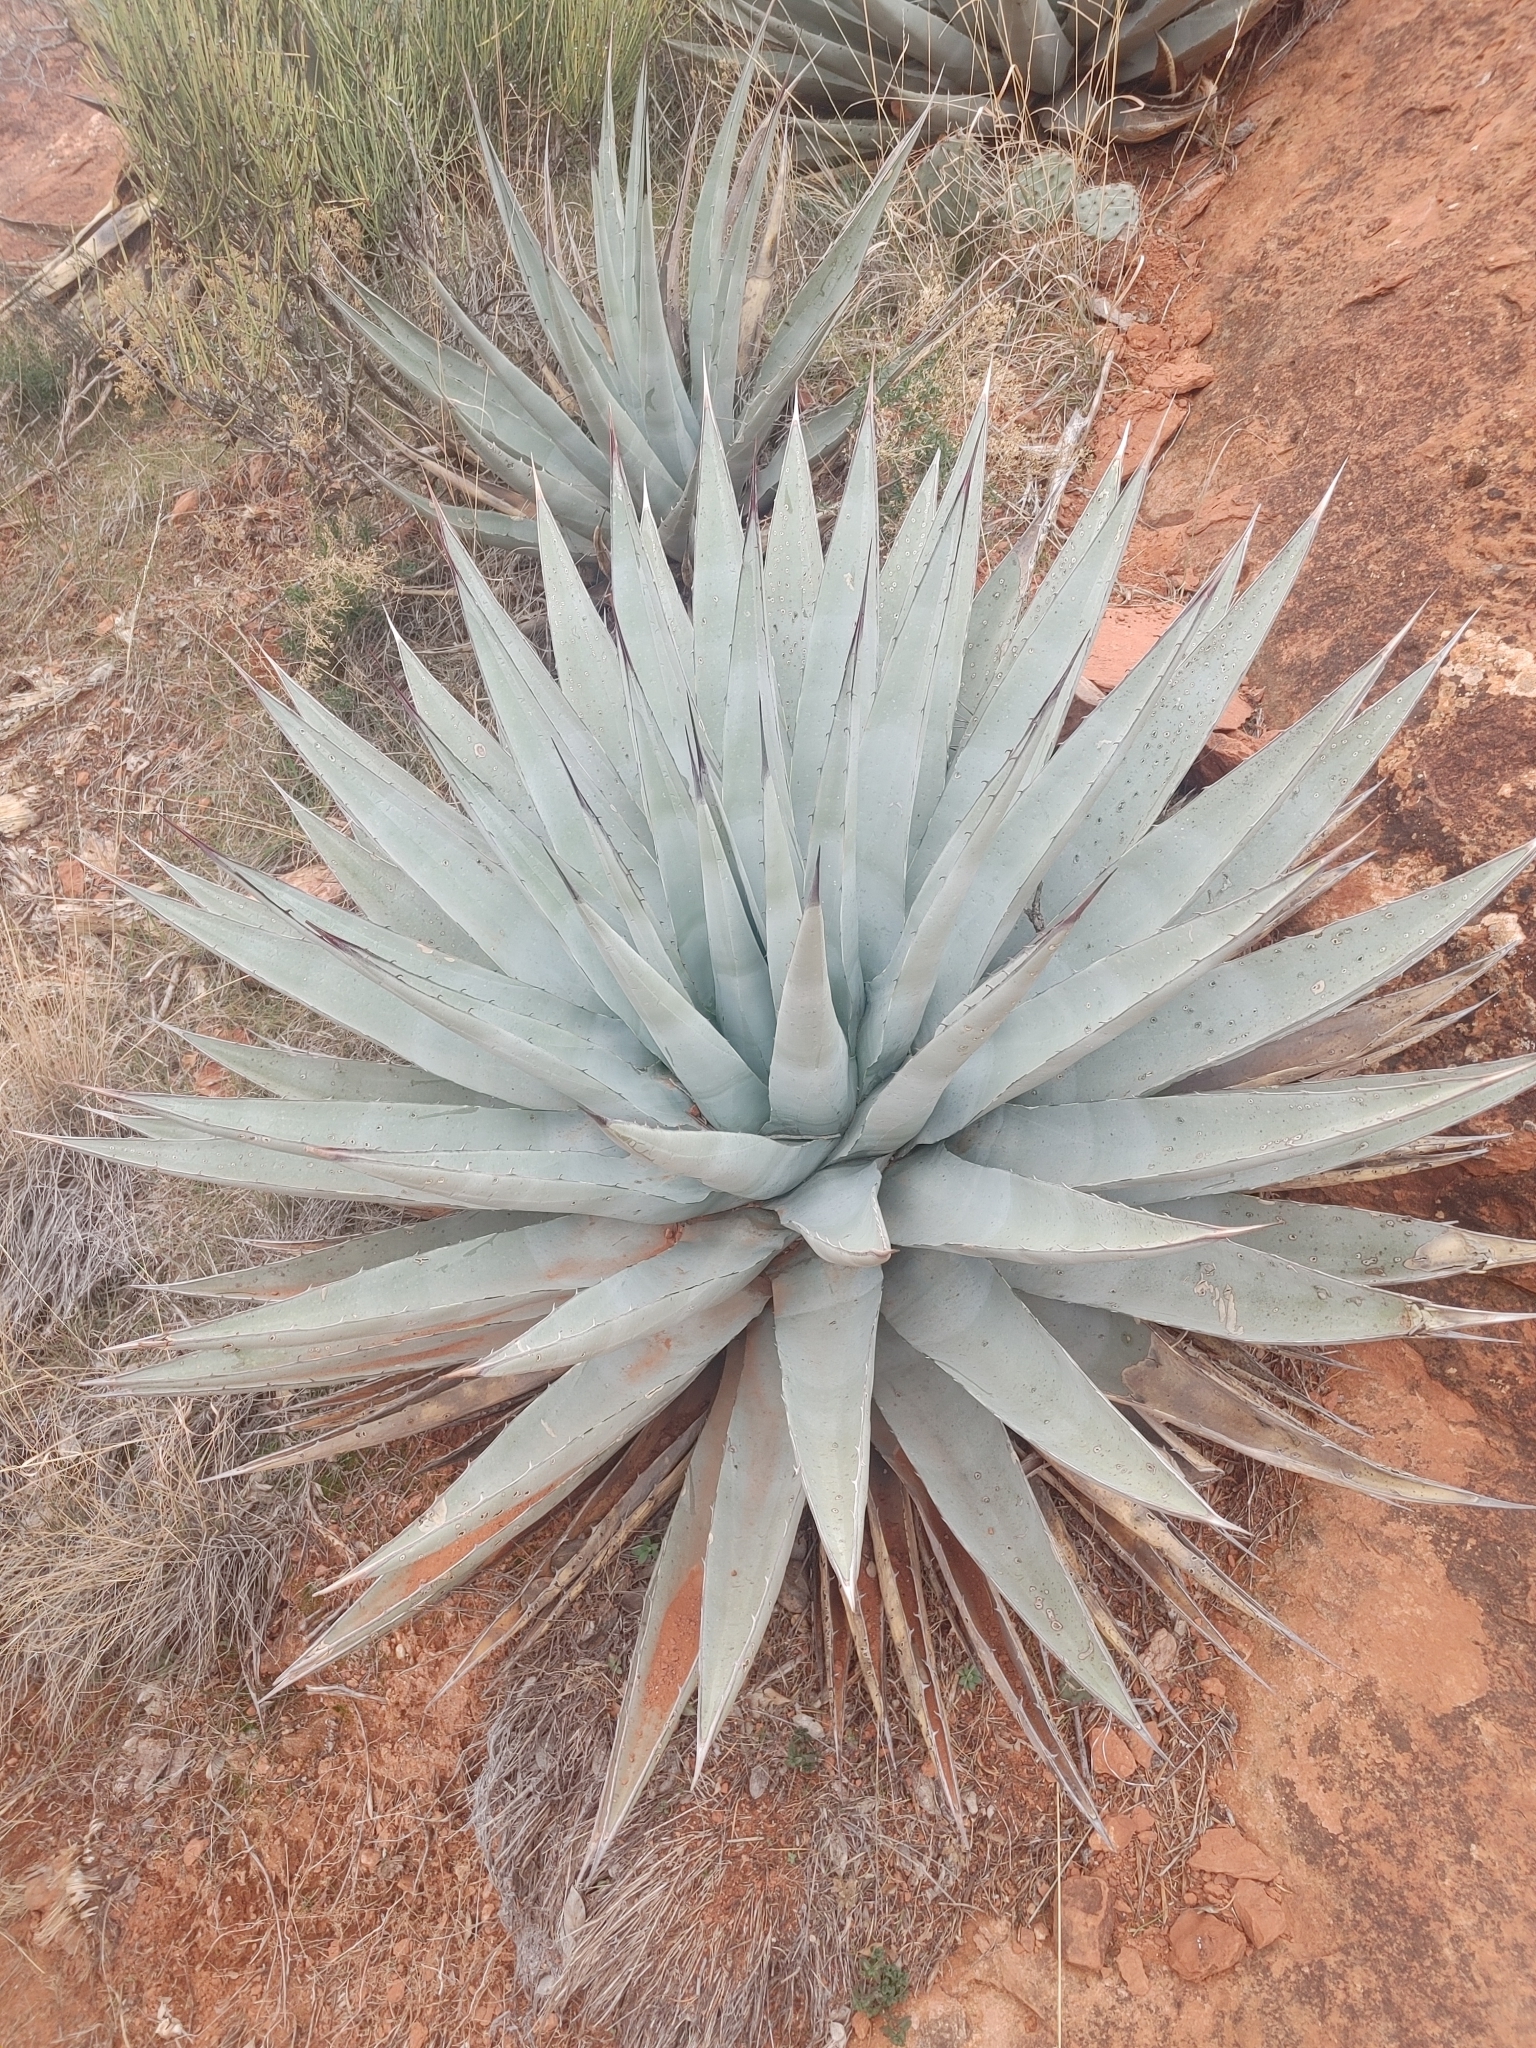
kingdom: Plantae
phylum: Tracheophyta
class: Liliopsida
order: Asparagales
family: Asparagaceae
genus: Agave
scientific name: Agave parryi
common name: Parry's agave
